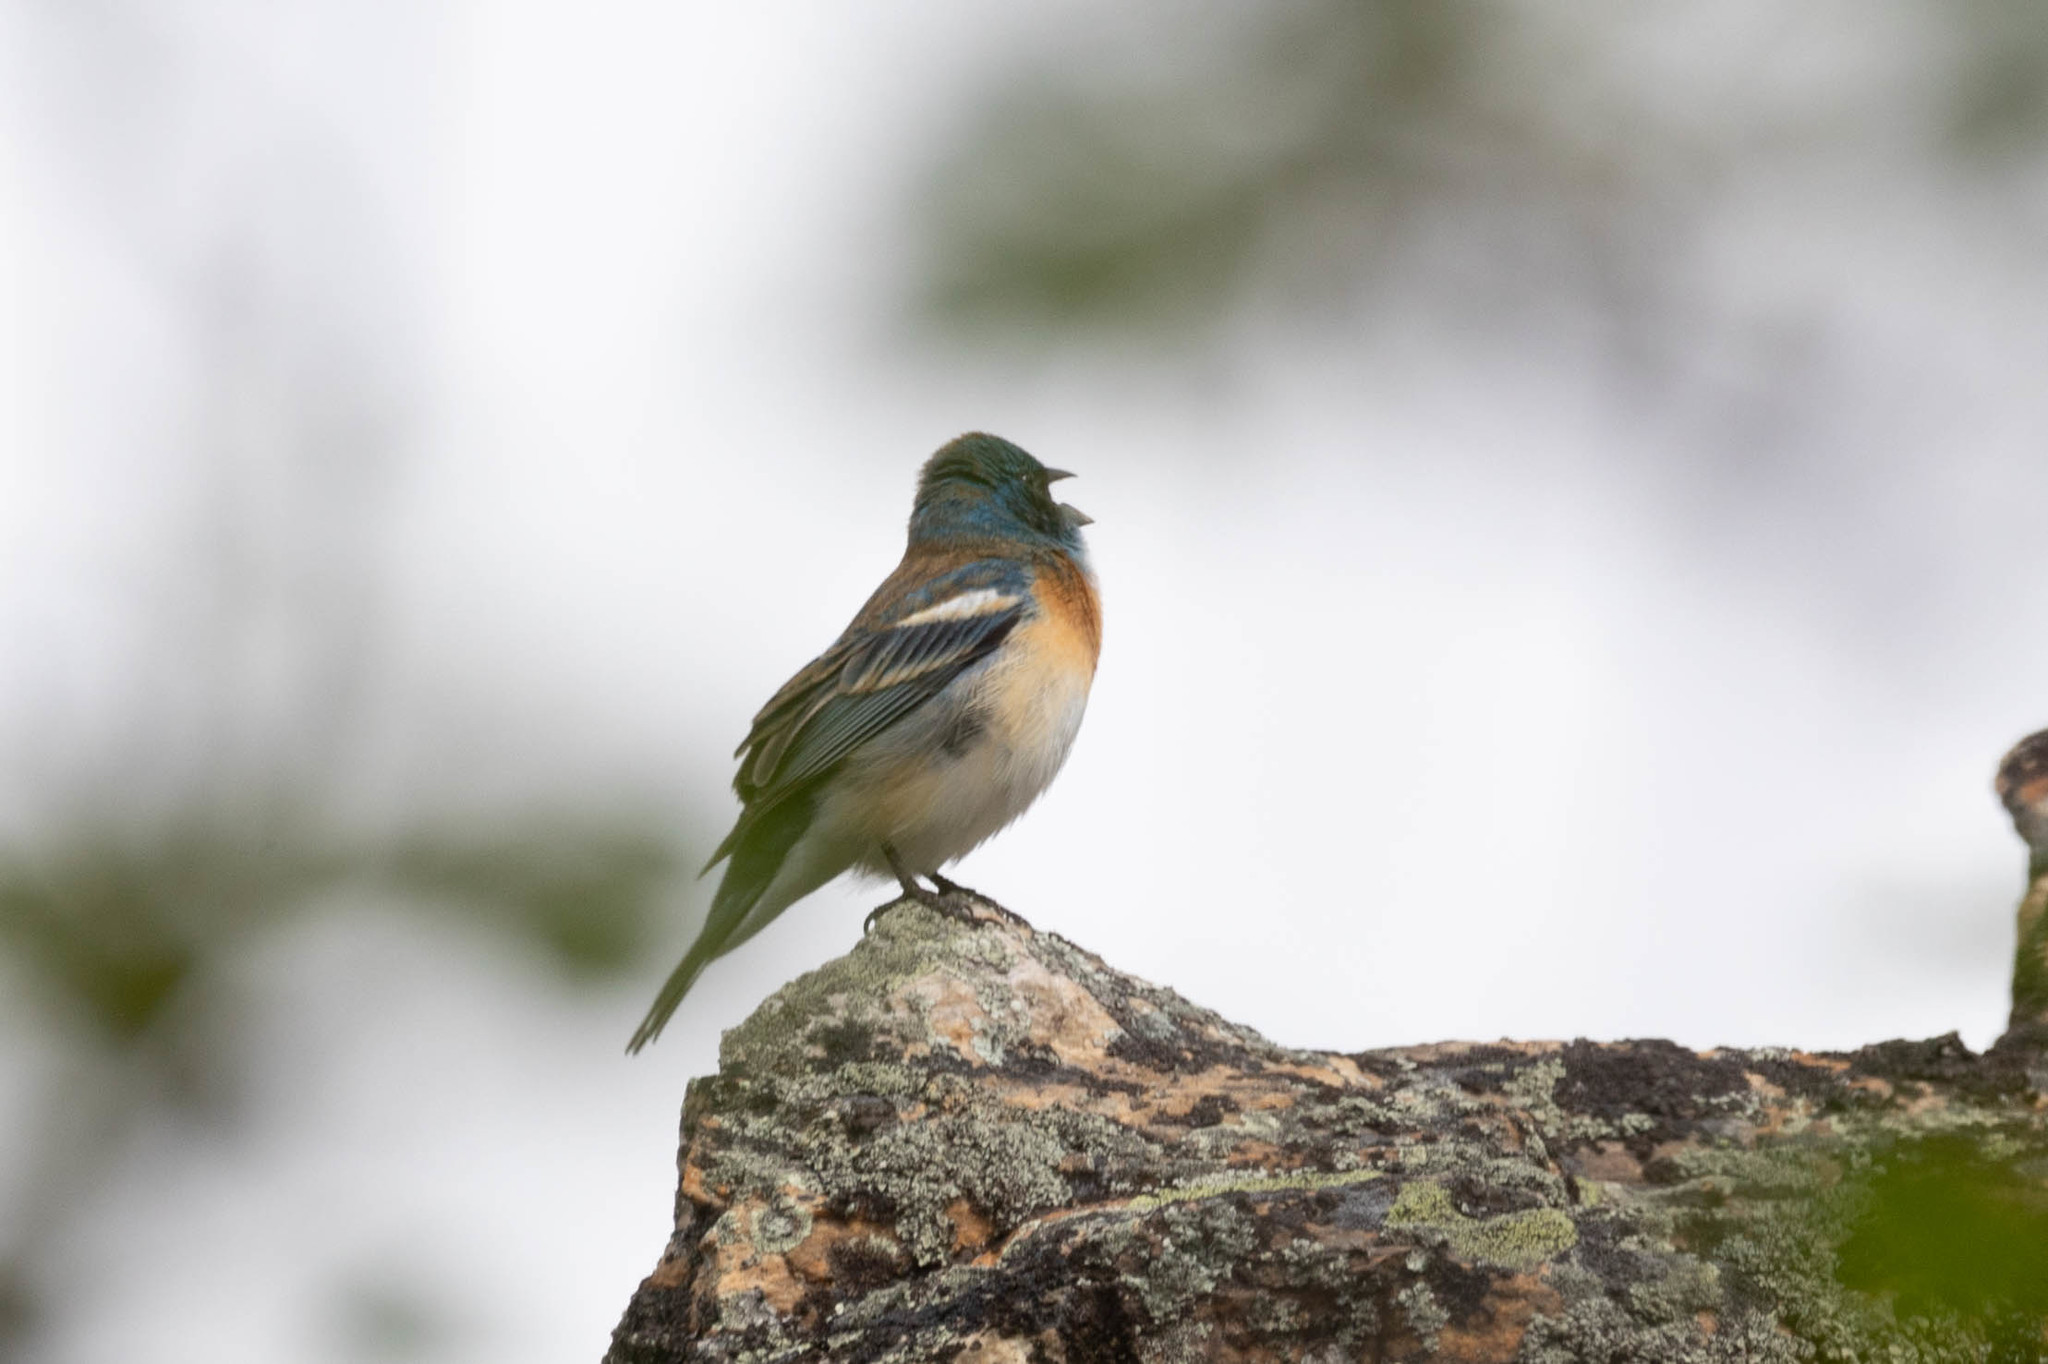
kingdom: Animalia
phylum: Chordata
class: Aves
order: Passeriformes
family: Cardinalidae
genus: Passerina
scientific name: Passerina amoena
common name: Lazuli bunting
